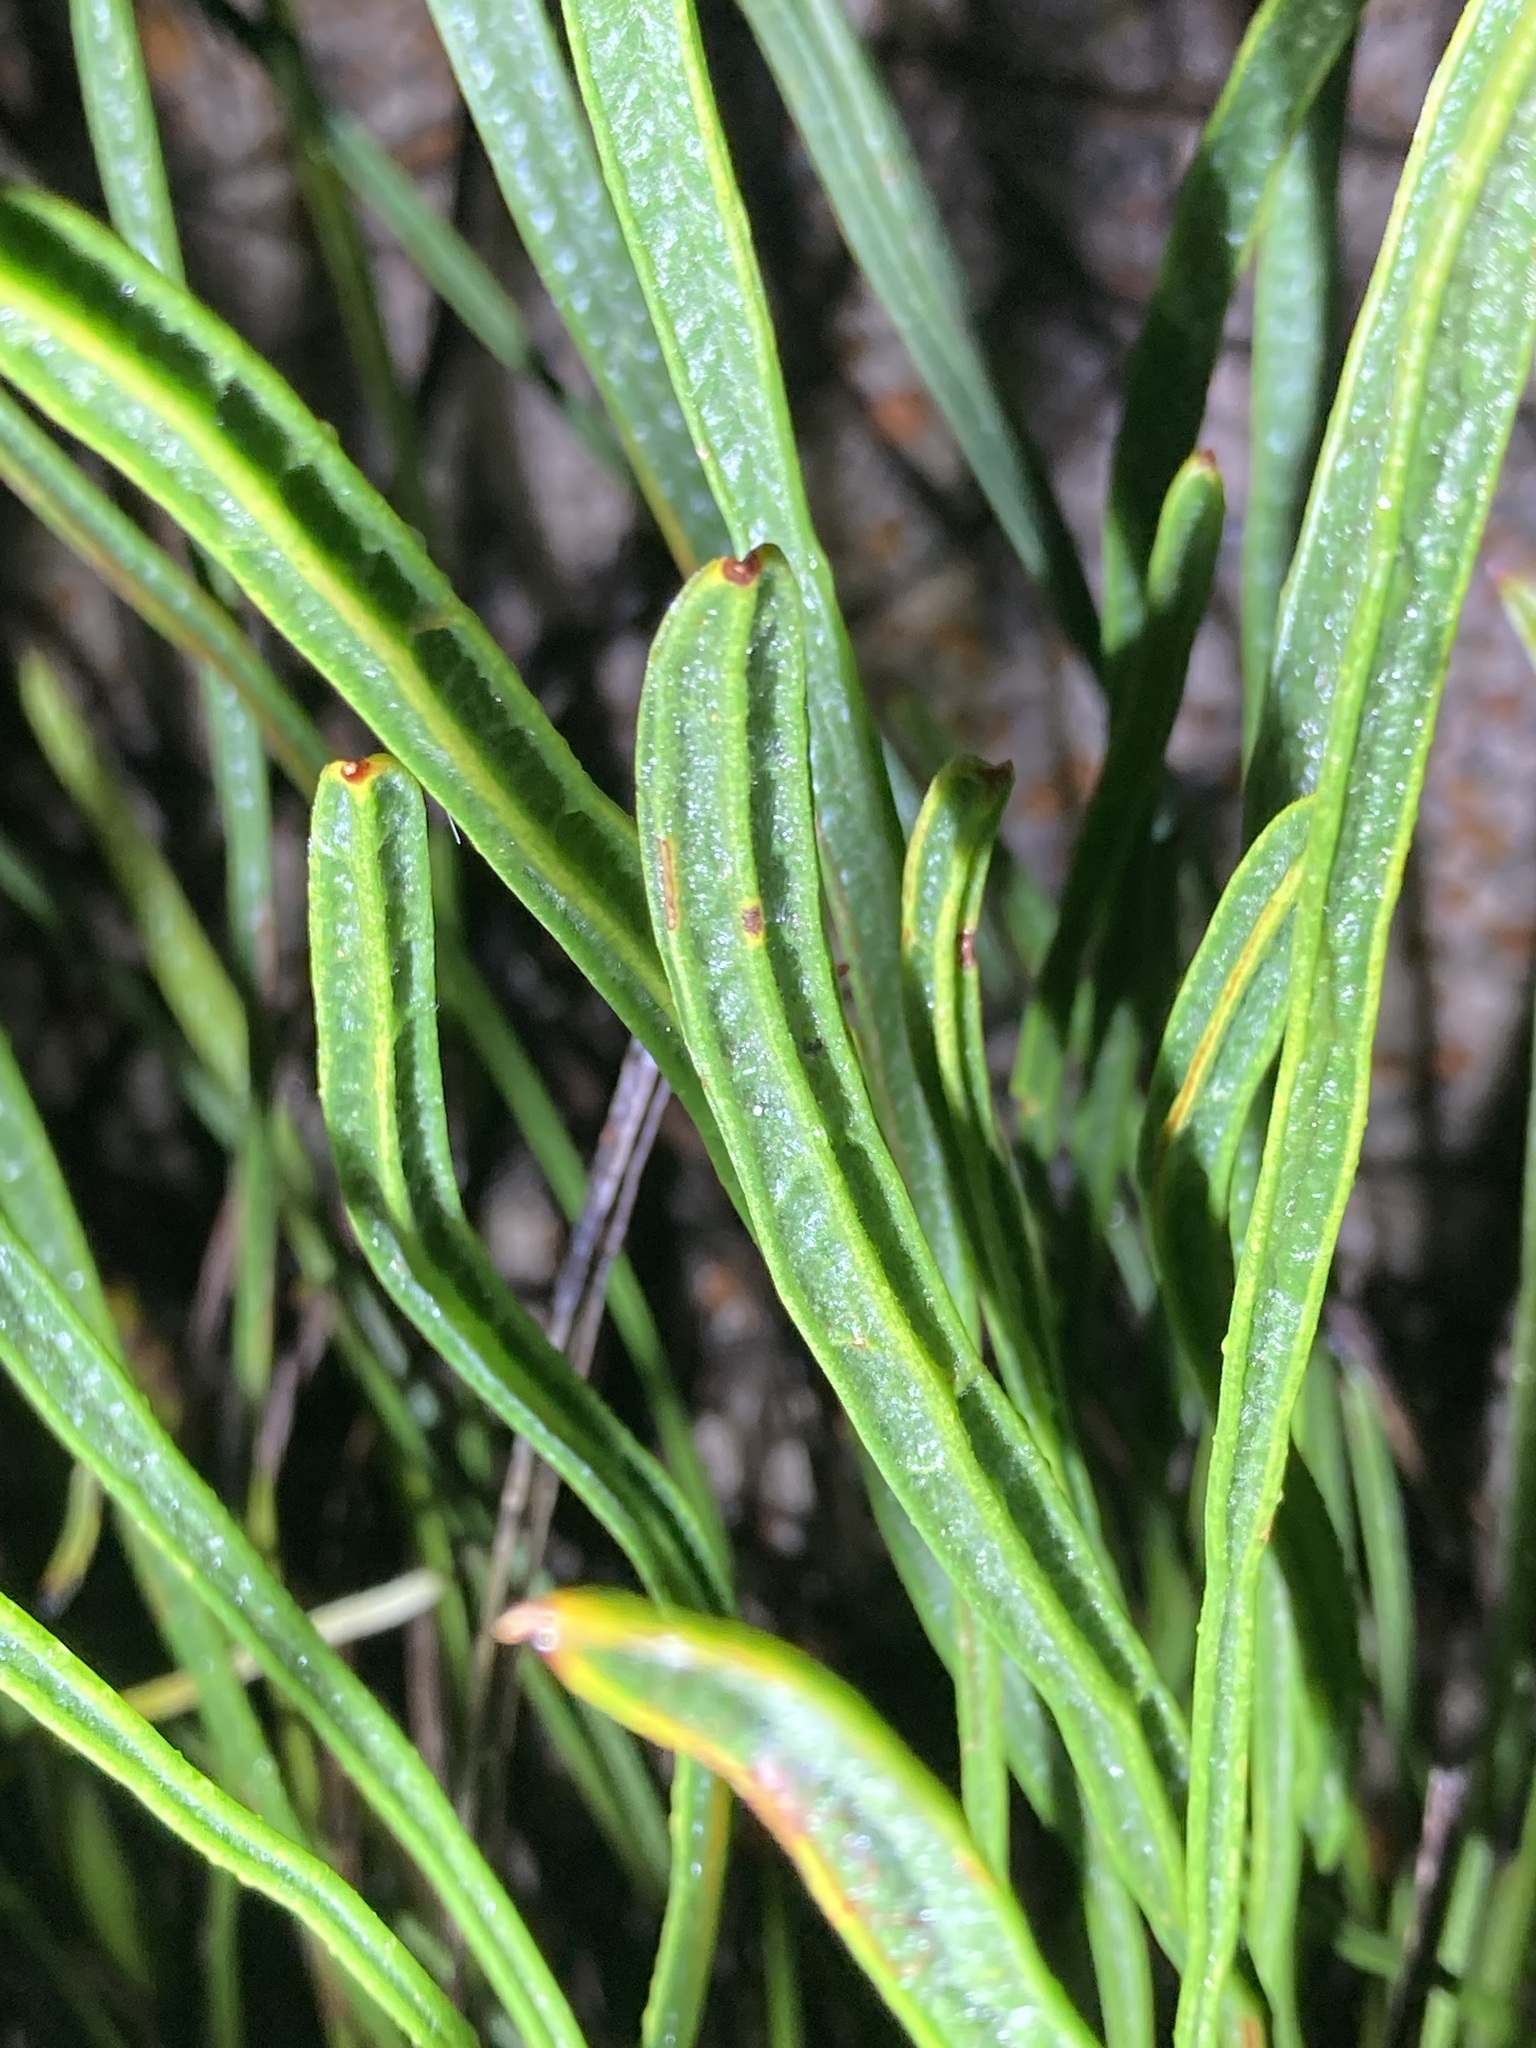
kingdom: Plantae
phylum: Tracheophyta
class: Magnoliopsida
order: Proteales
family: Proteaceae
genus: Conospermum
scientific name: Conospermum crassinervium
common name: Tassel smokebush
